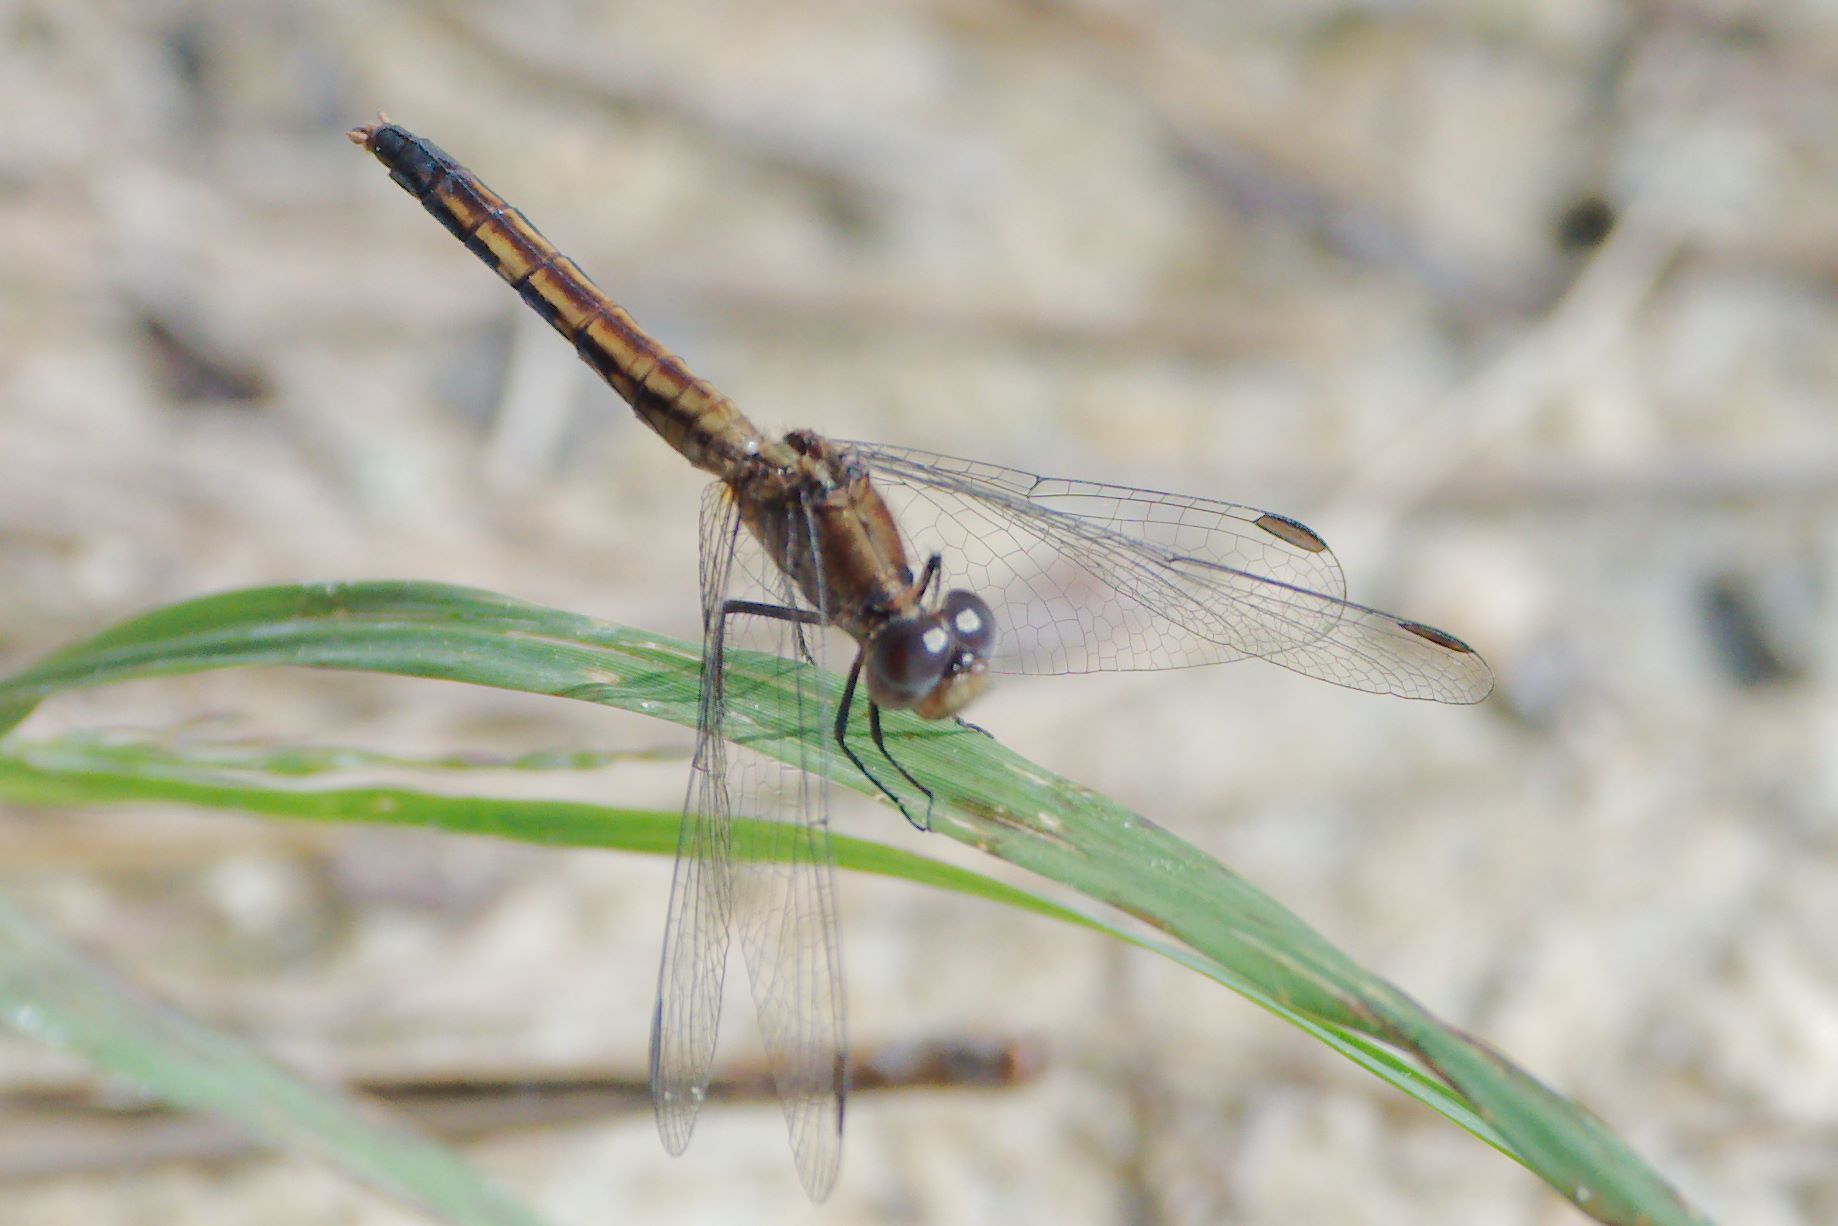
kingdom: Animalia
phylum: Arthropoda
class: Insecta
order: Odonata
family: Libellulidae
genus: Erythrodiplax
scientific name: Erythrodiplax minuscula
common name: Little blue dragonlet
